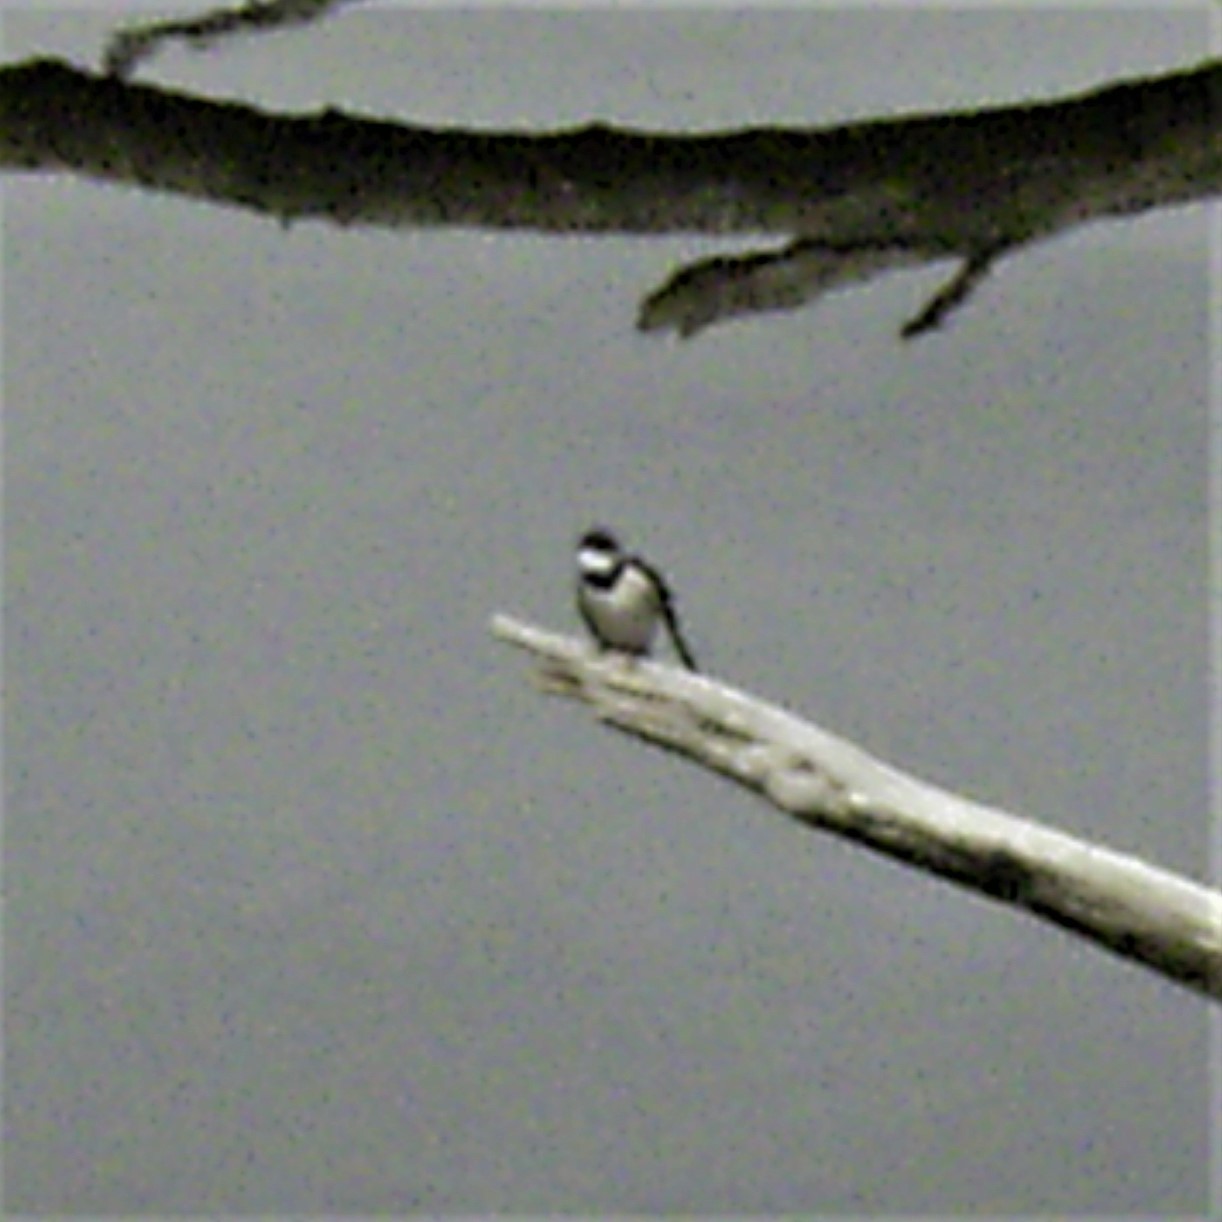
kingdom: Animalia
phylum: Chordata
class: Aves
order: Passeriformes
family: Hirundinidae
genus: Hirundo
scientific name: Hirundo albigularis
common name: White-throated swallow
